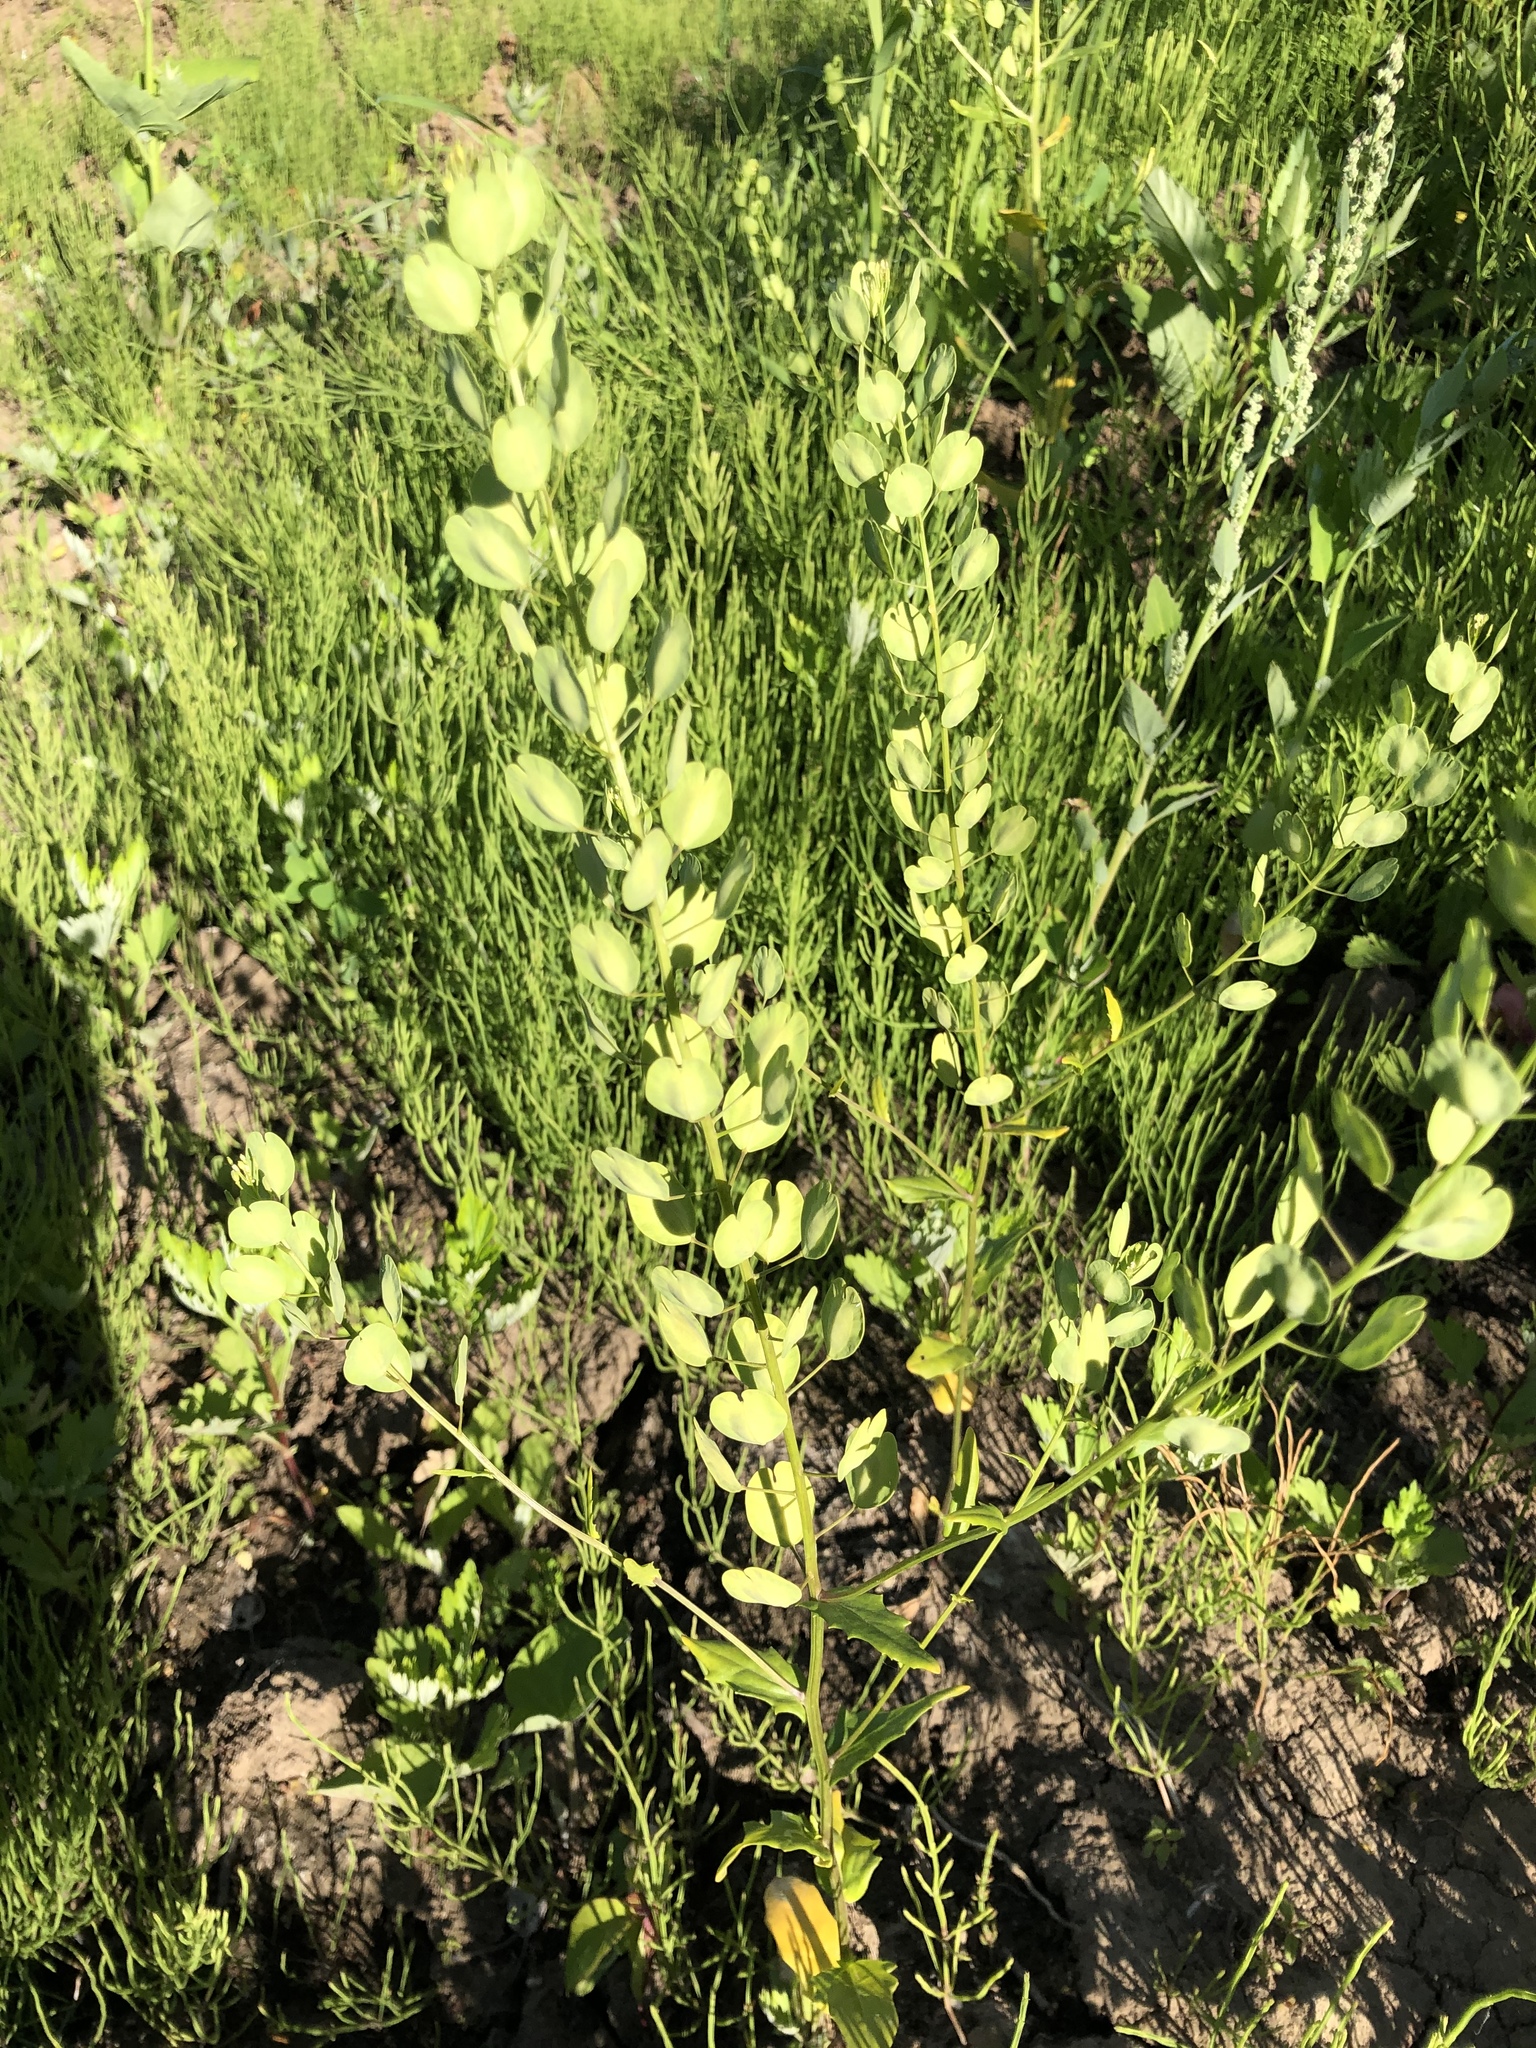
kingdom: Plantae
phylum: Tracheophyta
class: Magnoliopsida
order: Brassicales
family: Brassicaceae
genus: Thlaspi
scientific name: Thlaspi arvense
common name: Field pennycress
